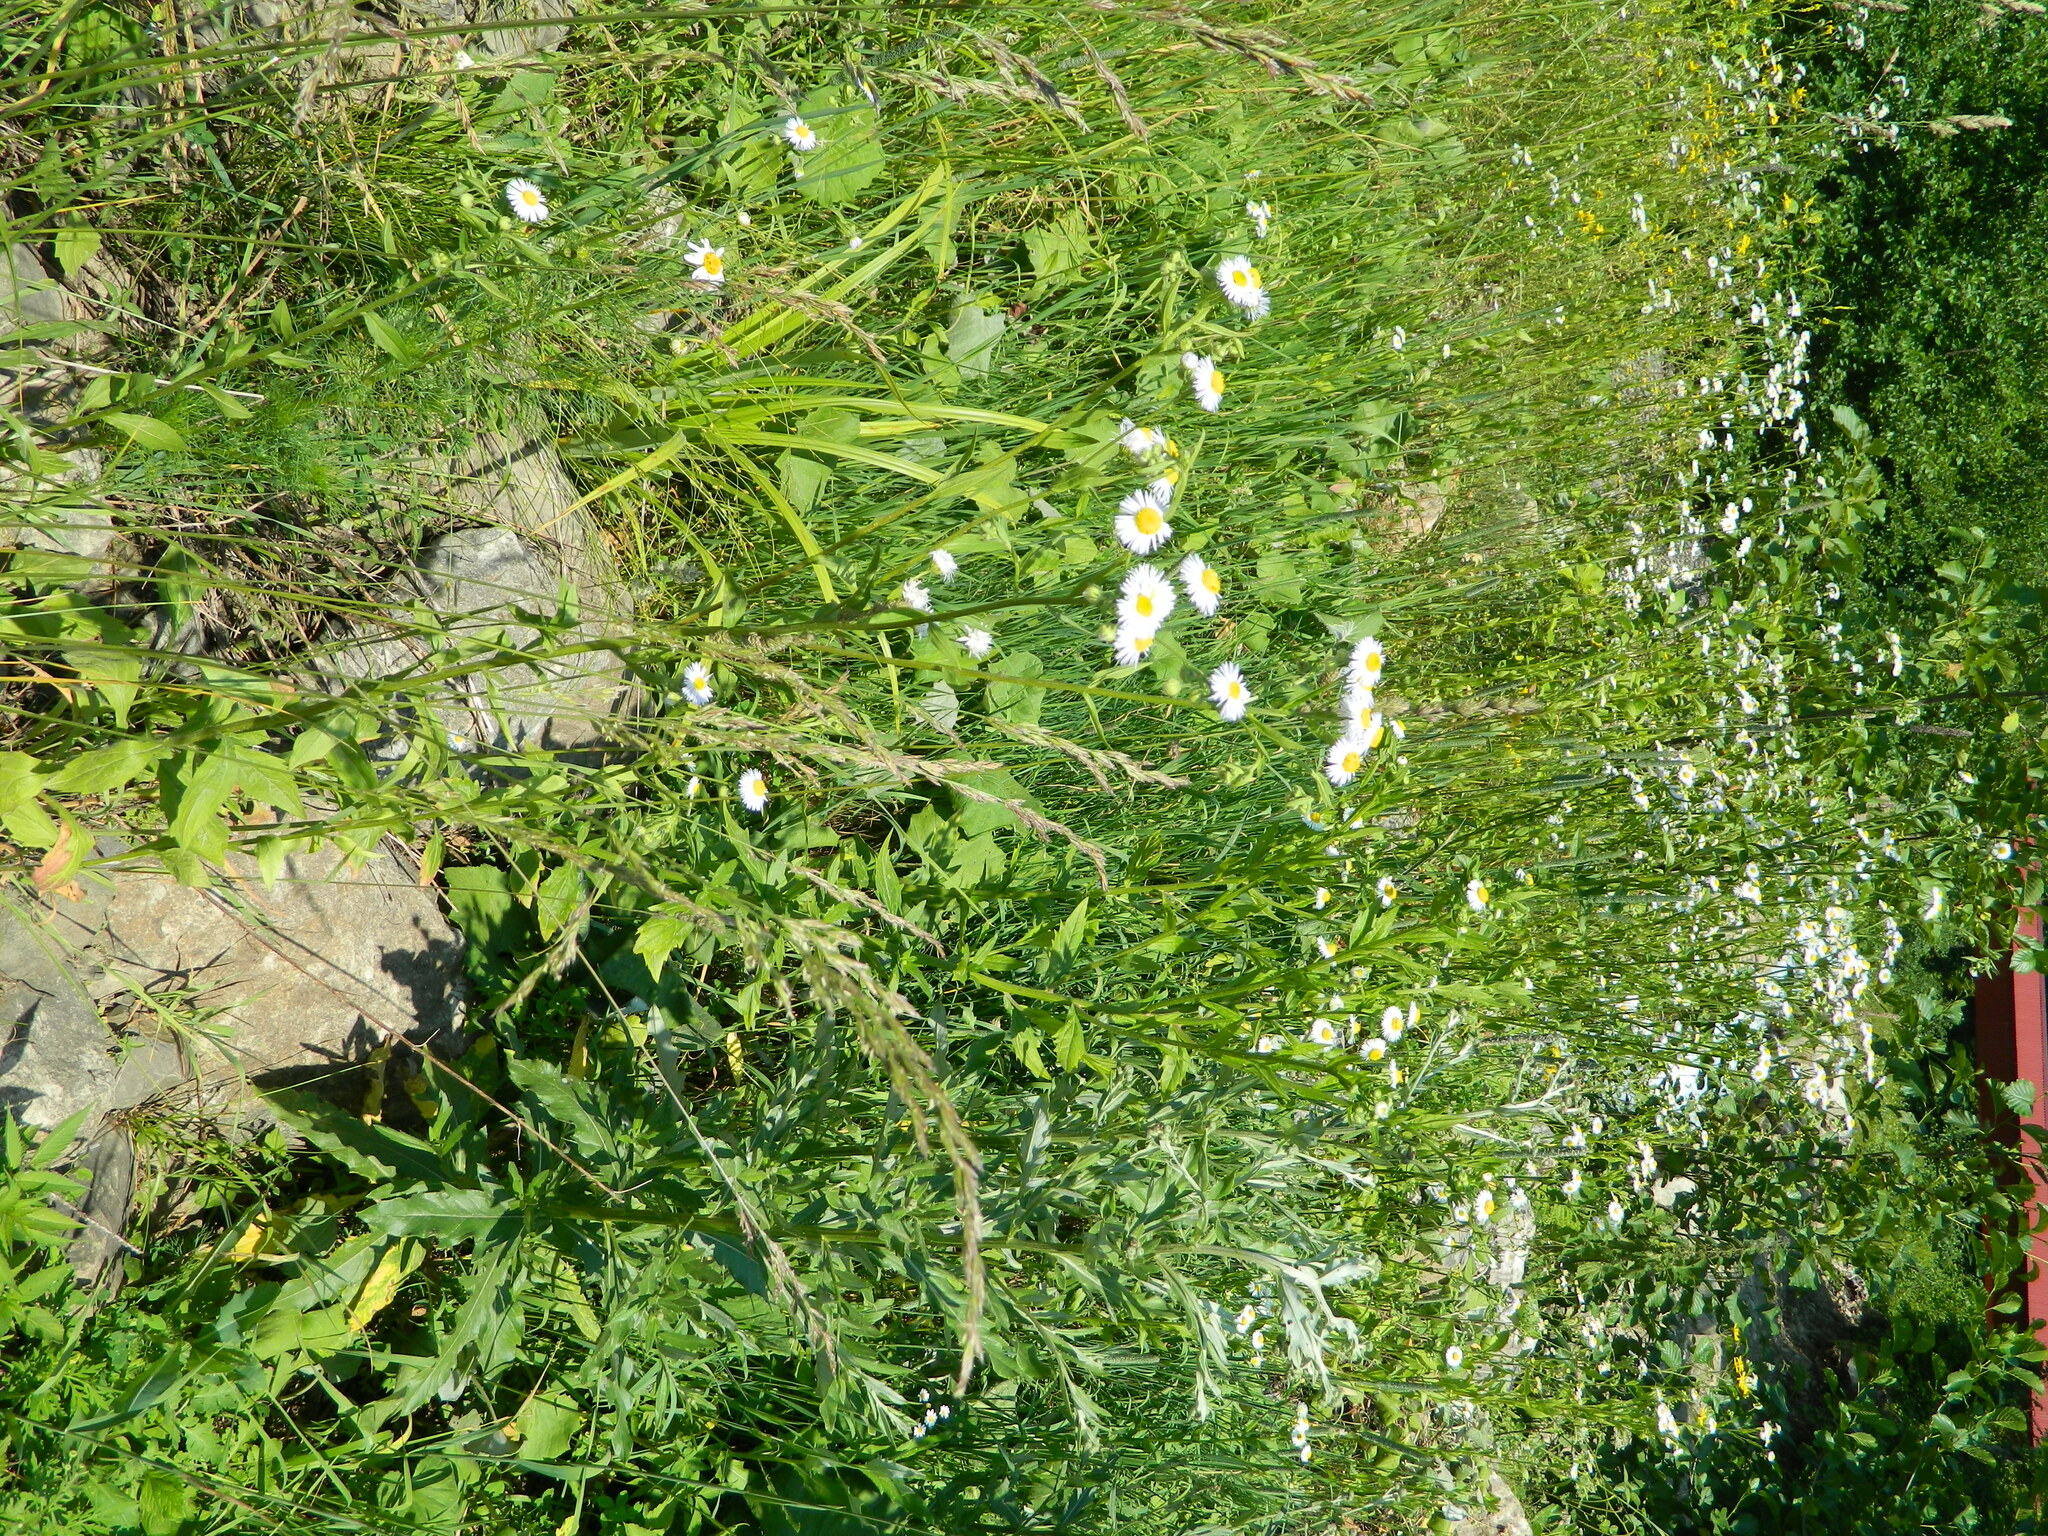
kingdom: Plantae
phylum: Tracheophyta
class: Magnoliopsida
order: Asterales
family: Asteraceae
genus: Erigeron
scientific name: Erigeron annuus
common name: Tall fleabane
